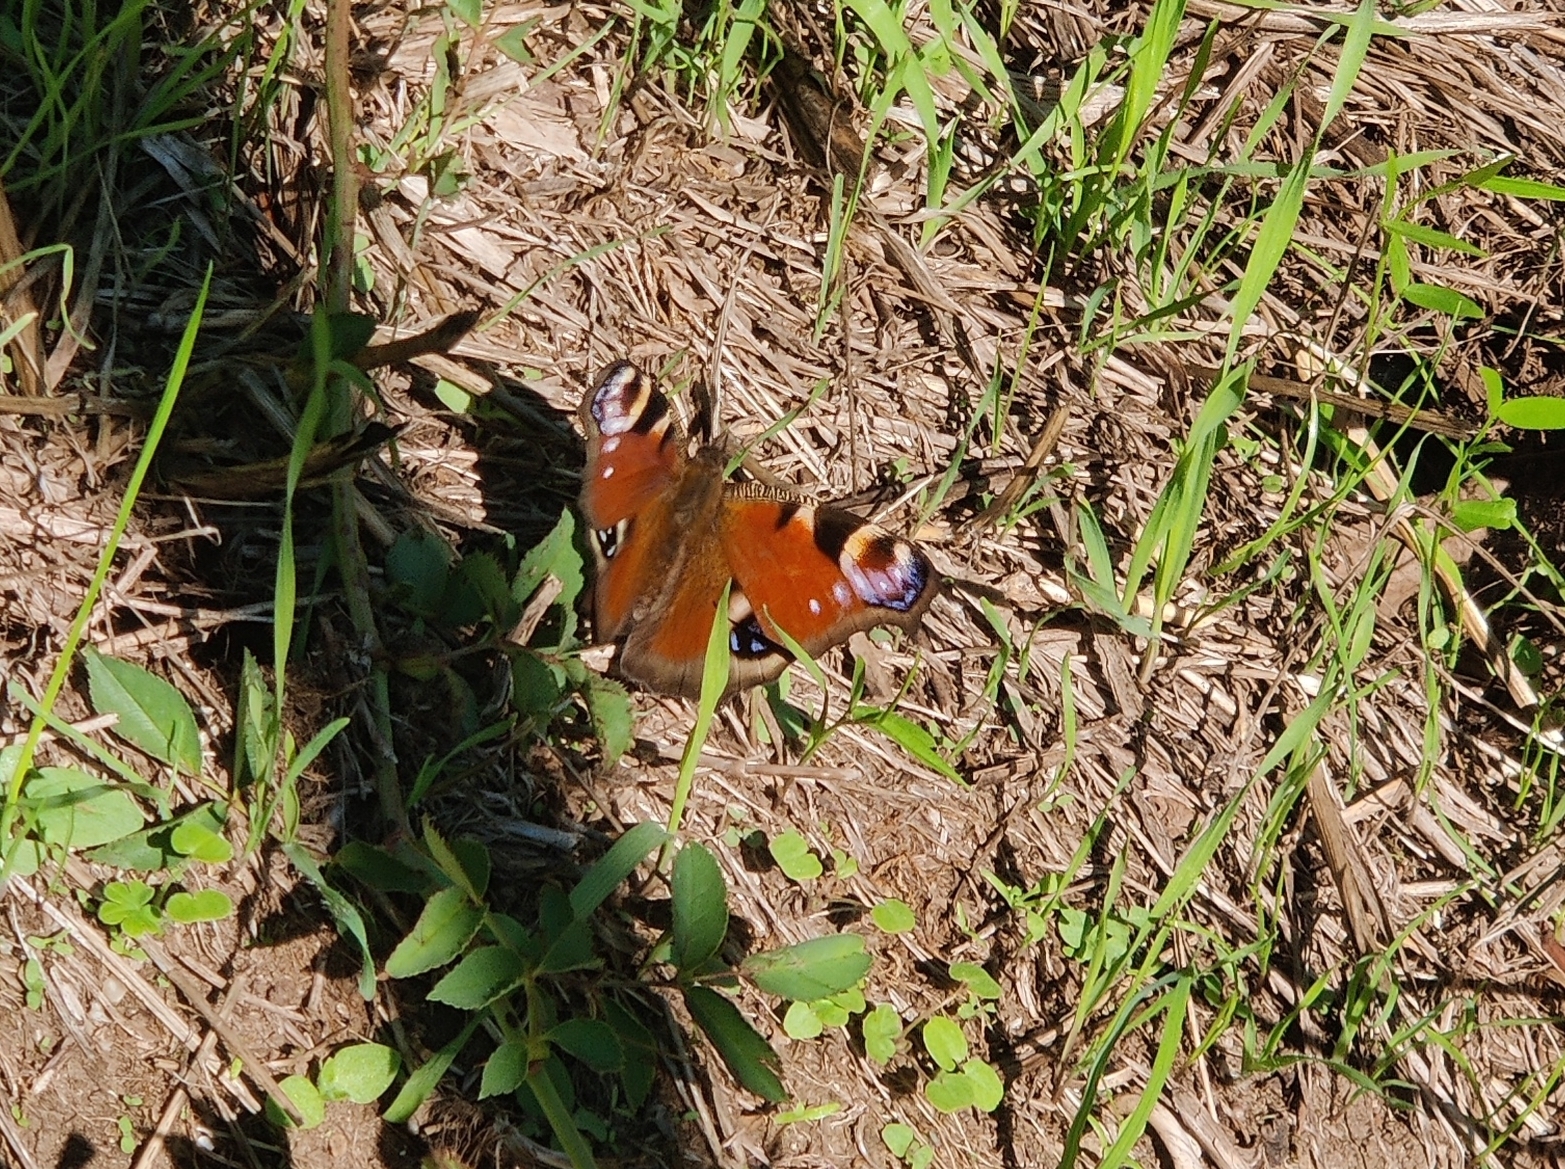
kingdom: Animalia
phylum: Arthropoda
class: Insecta
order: Lepidoptera
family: Nymphalidae
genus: Aglais
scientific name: Aglais io
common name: Peacock
